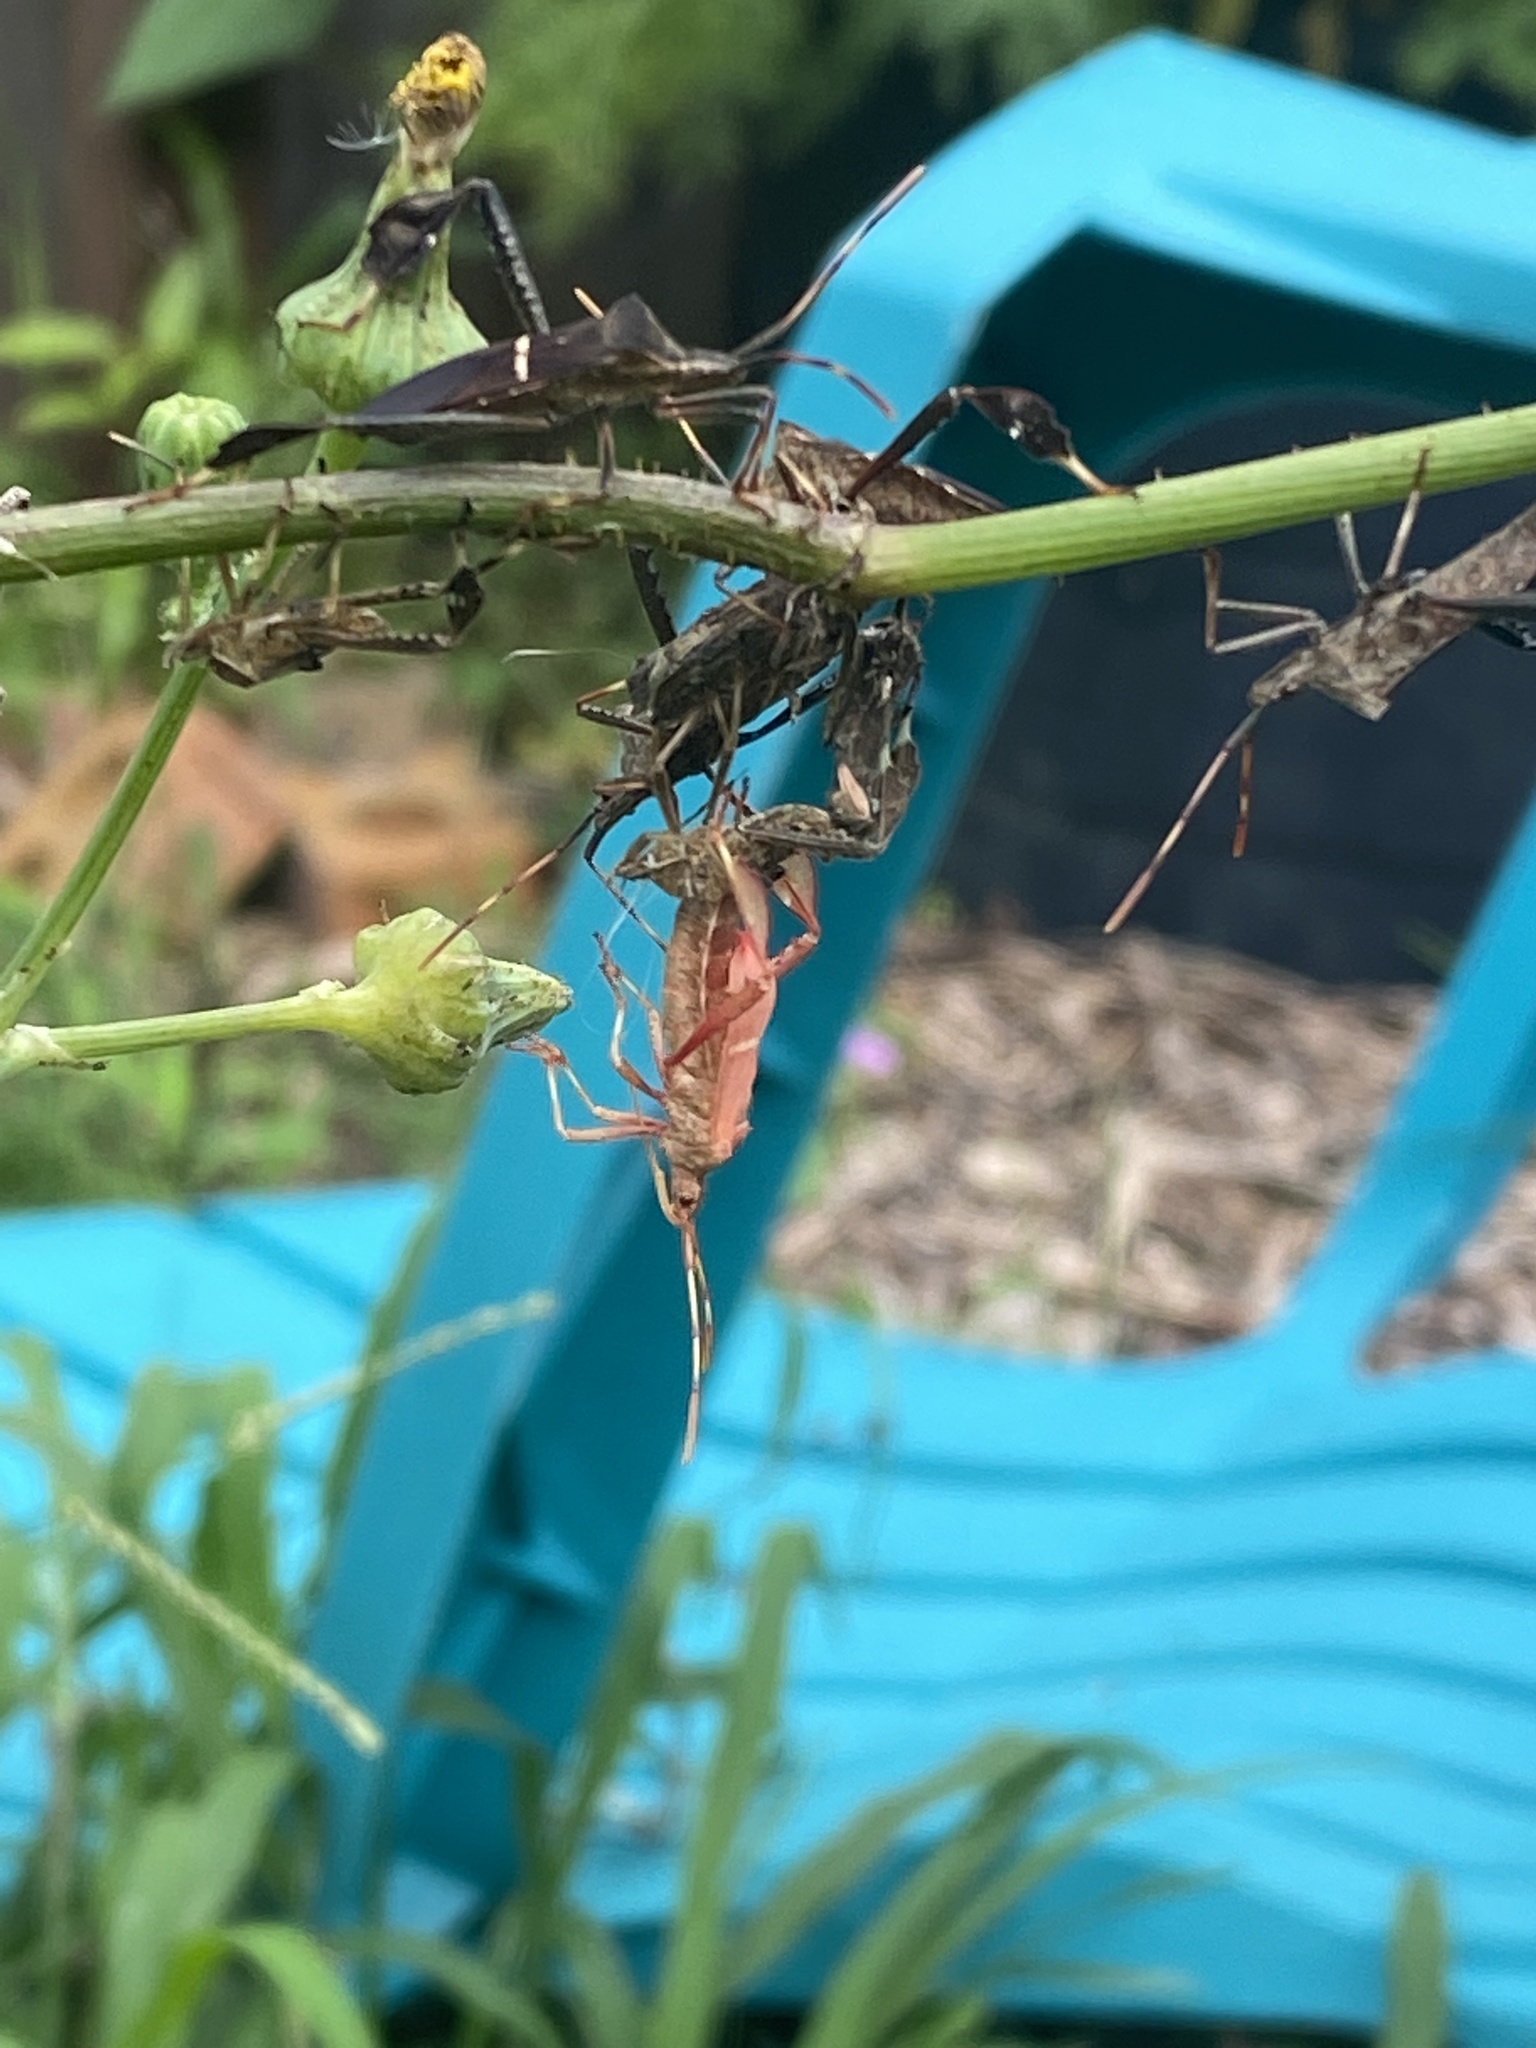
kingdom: Animalia
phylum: Arthropoda
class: Insecta
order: Hemiptera
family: Coreidae
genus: Leptoglossus
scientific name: Leptoglossus phyllopus
